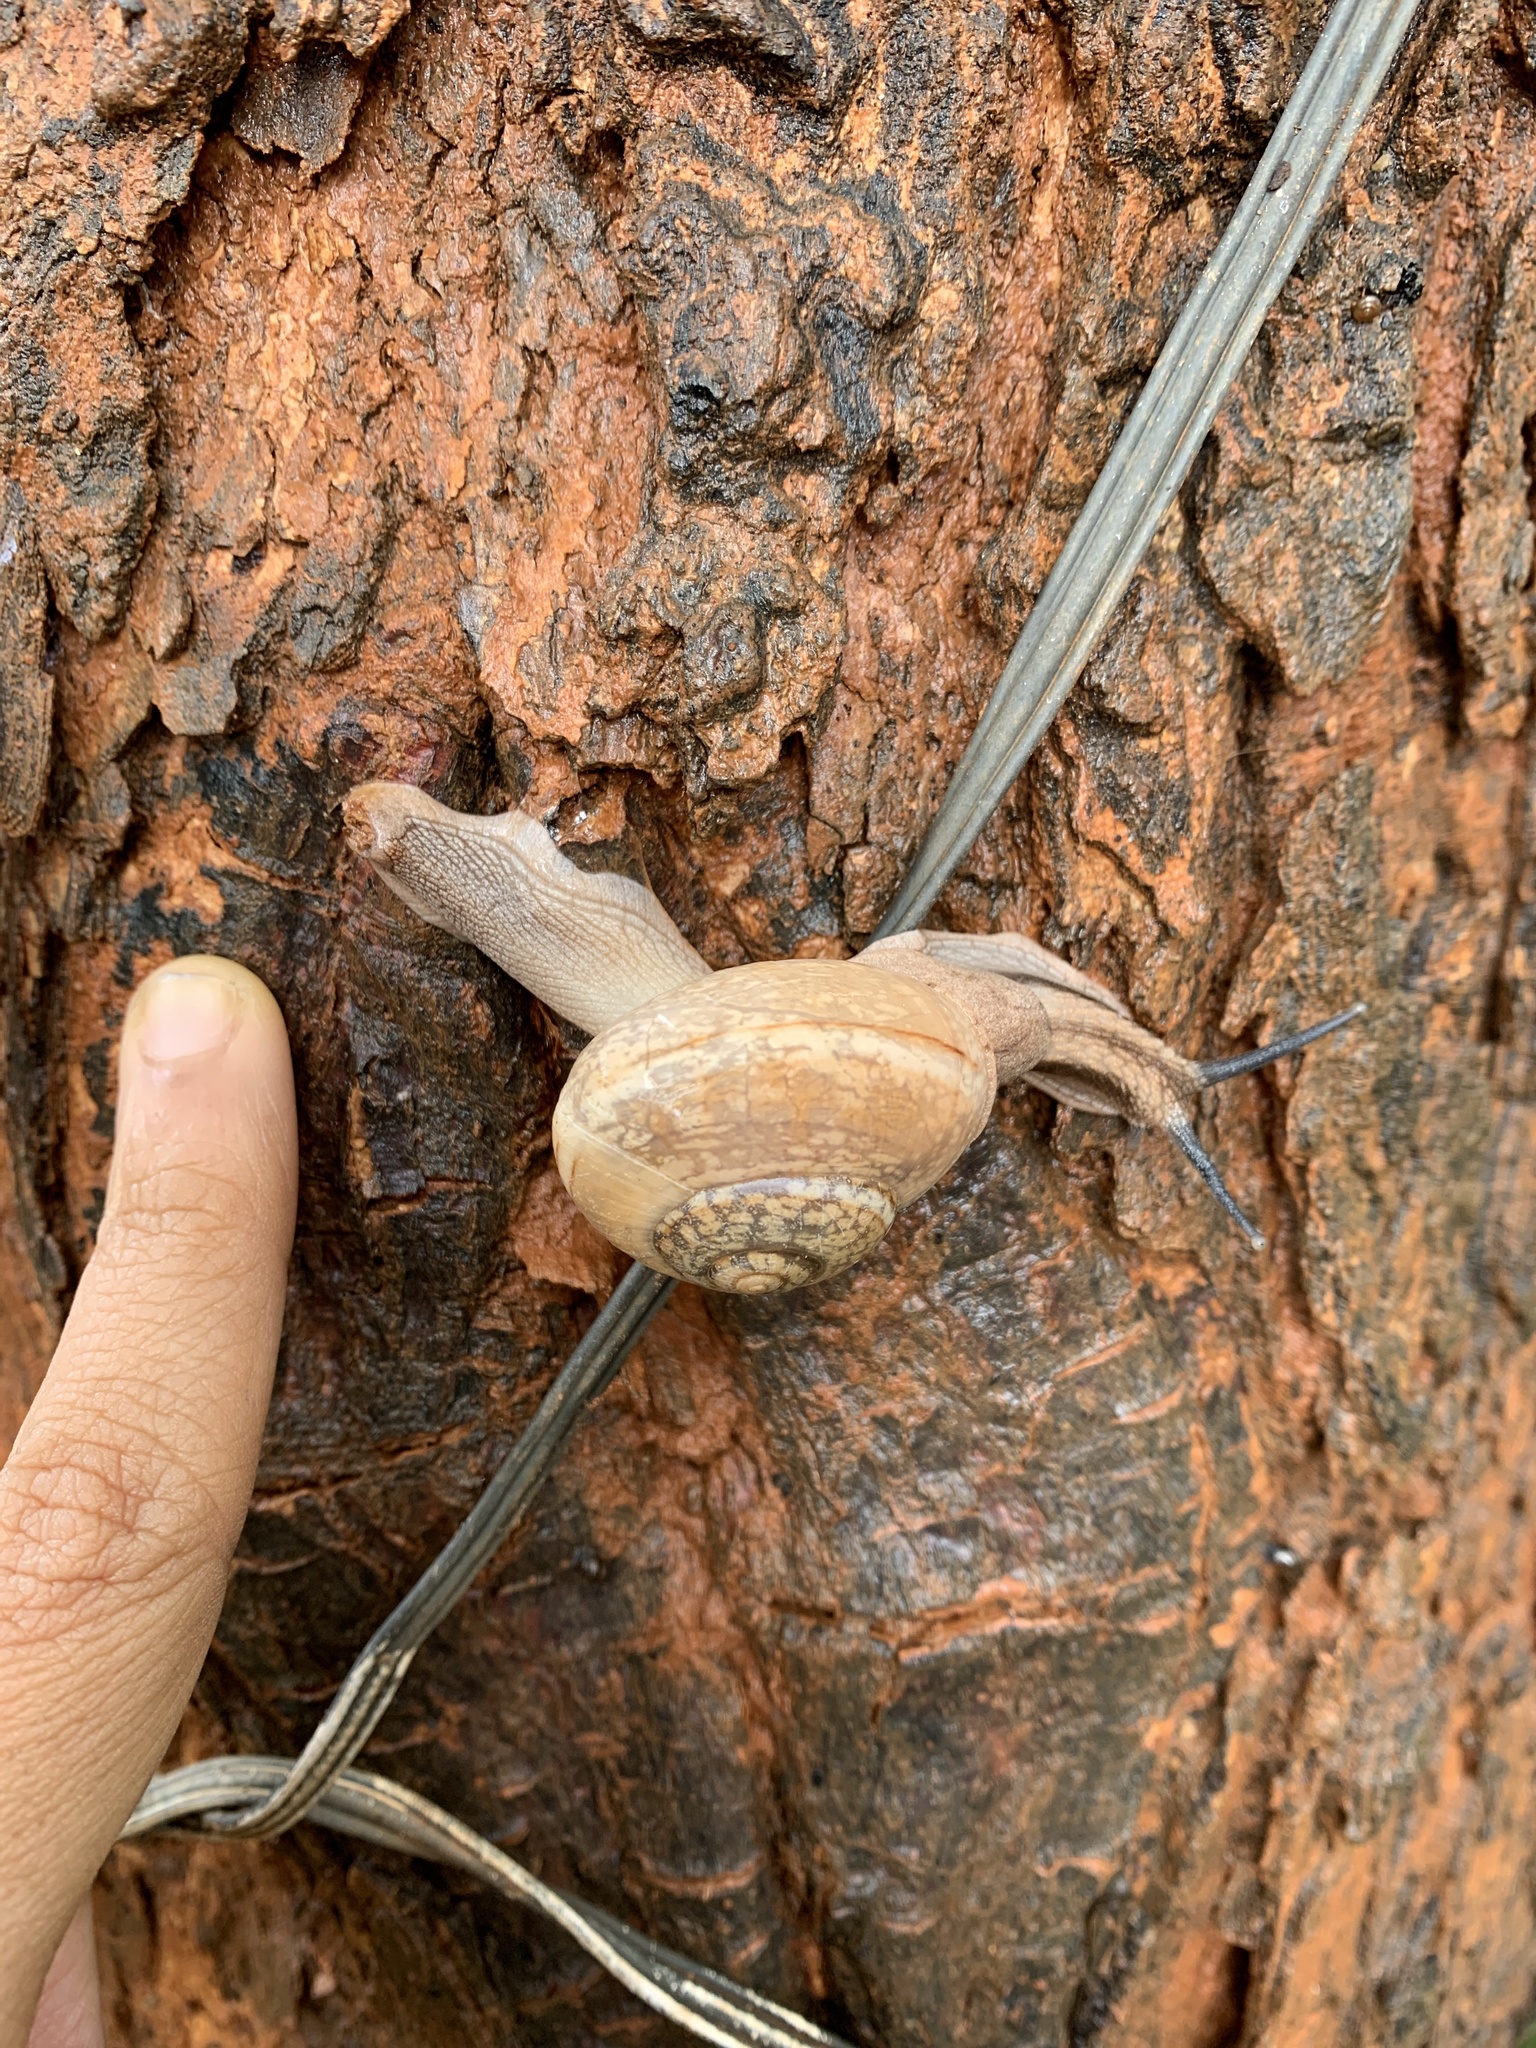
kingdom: Animalia
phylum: Mollusca
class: Gastropoda
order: Stylommatophora
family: Ariophantidae
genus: Ariophanta
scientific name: Ariophanta exilis
